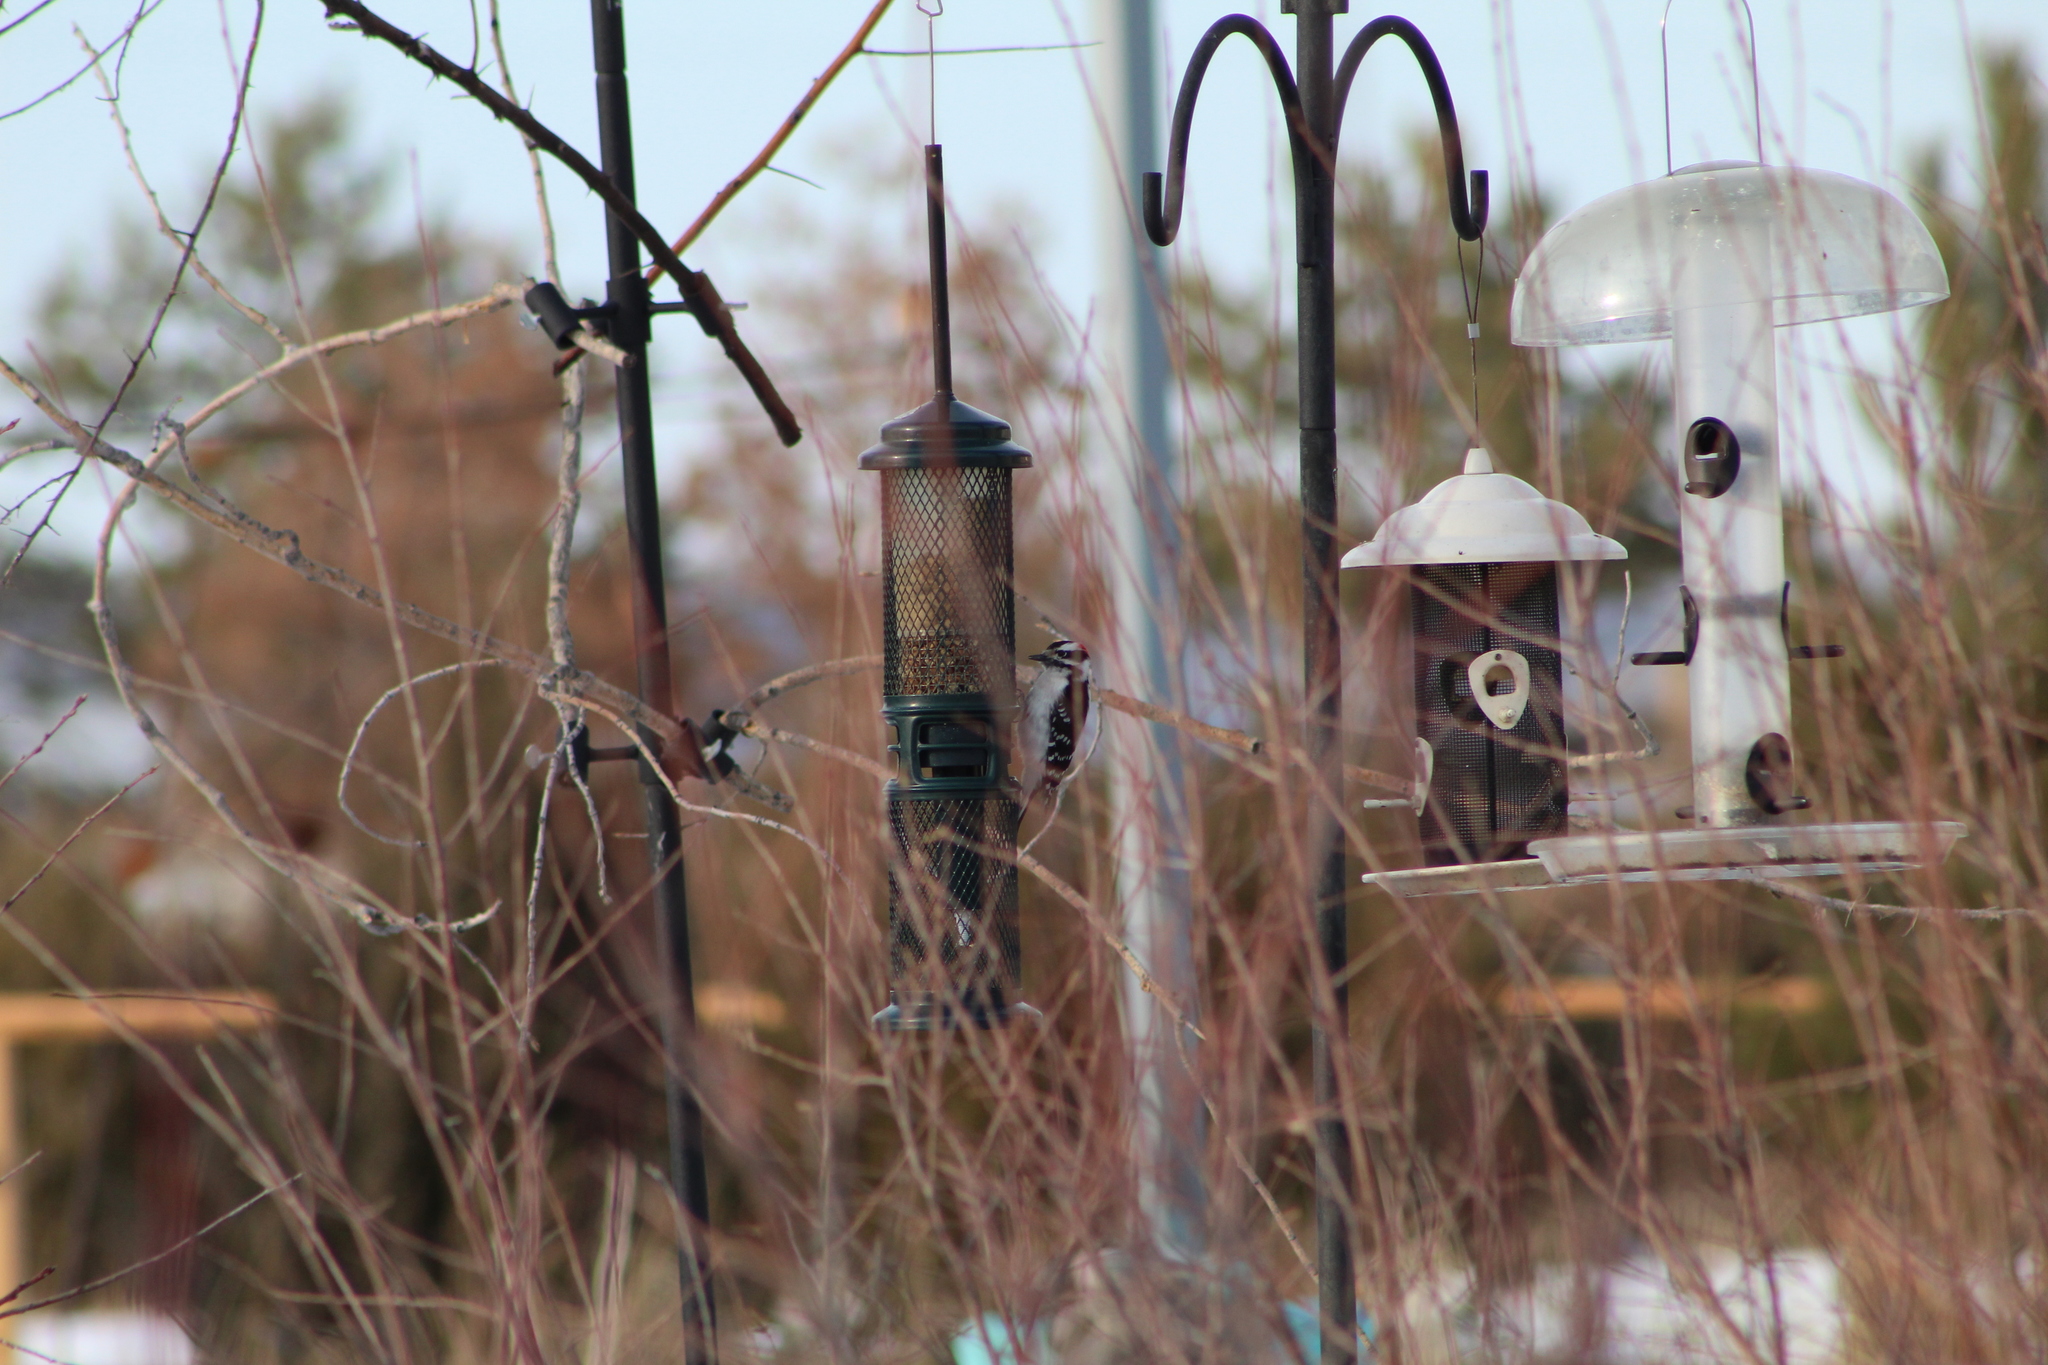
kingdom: Animalia
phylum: Chordata
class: Aves
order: Piciformes
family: Picidae
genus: Dryobates
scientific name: Dryobates pubescens
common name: Downy woodpecker
